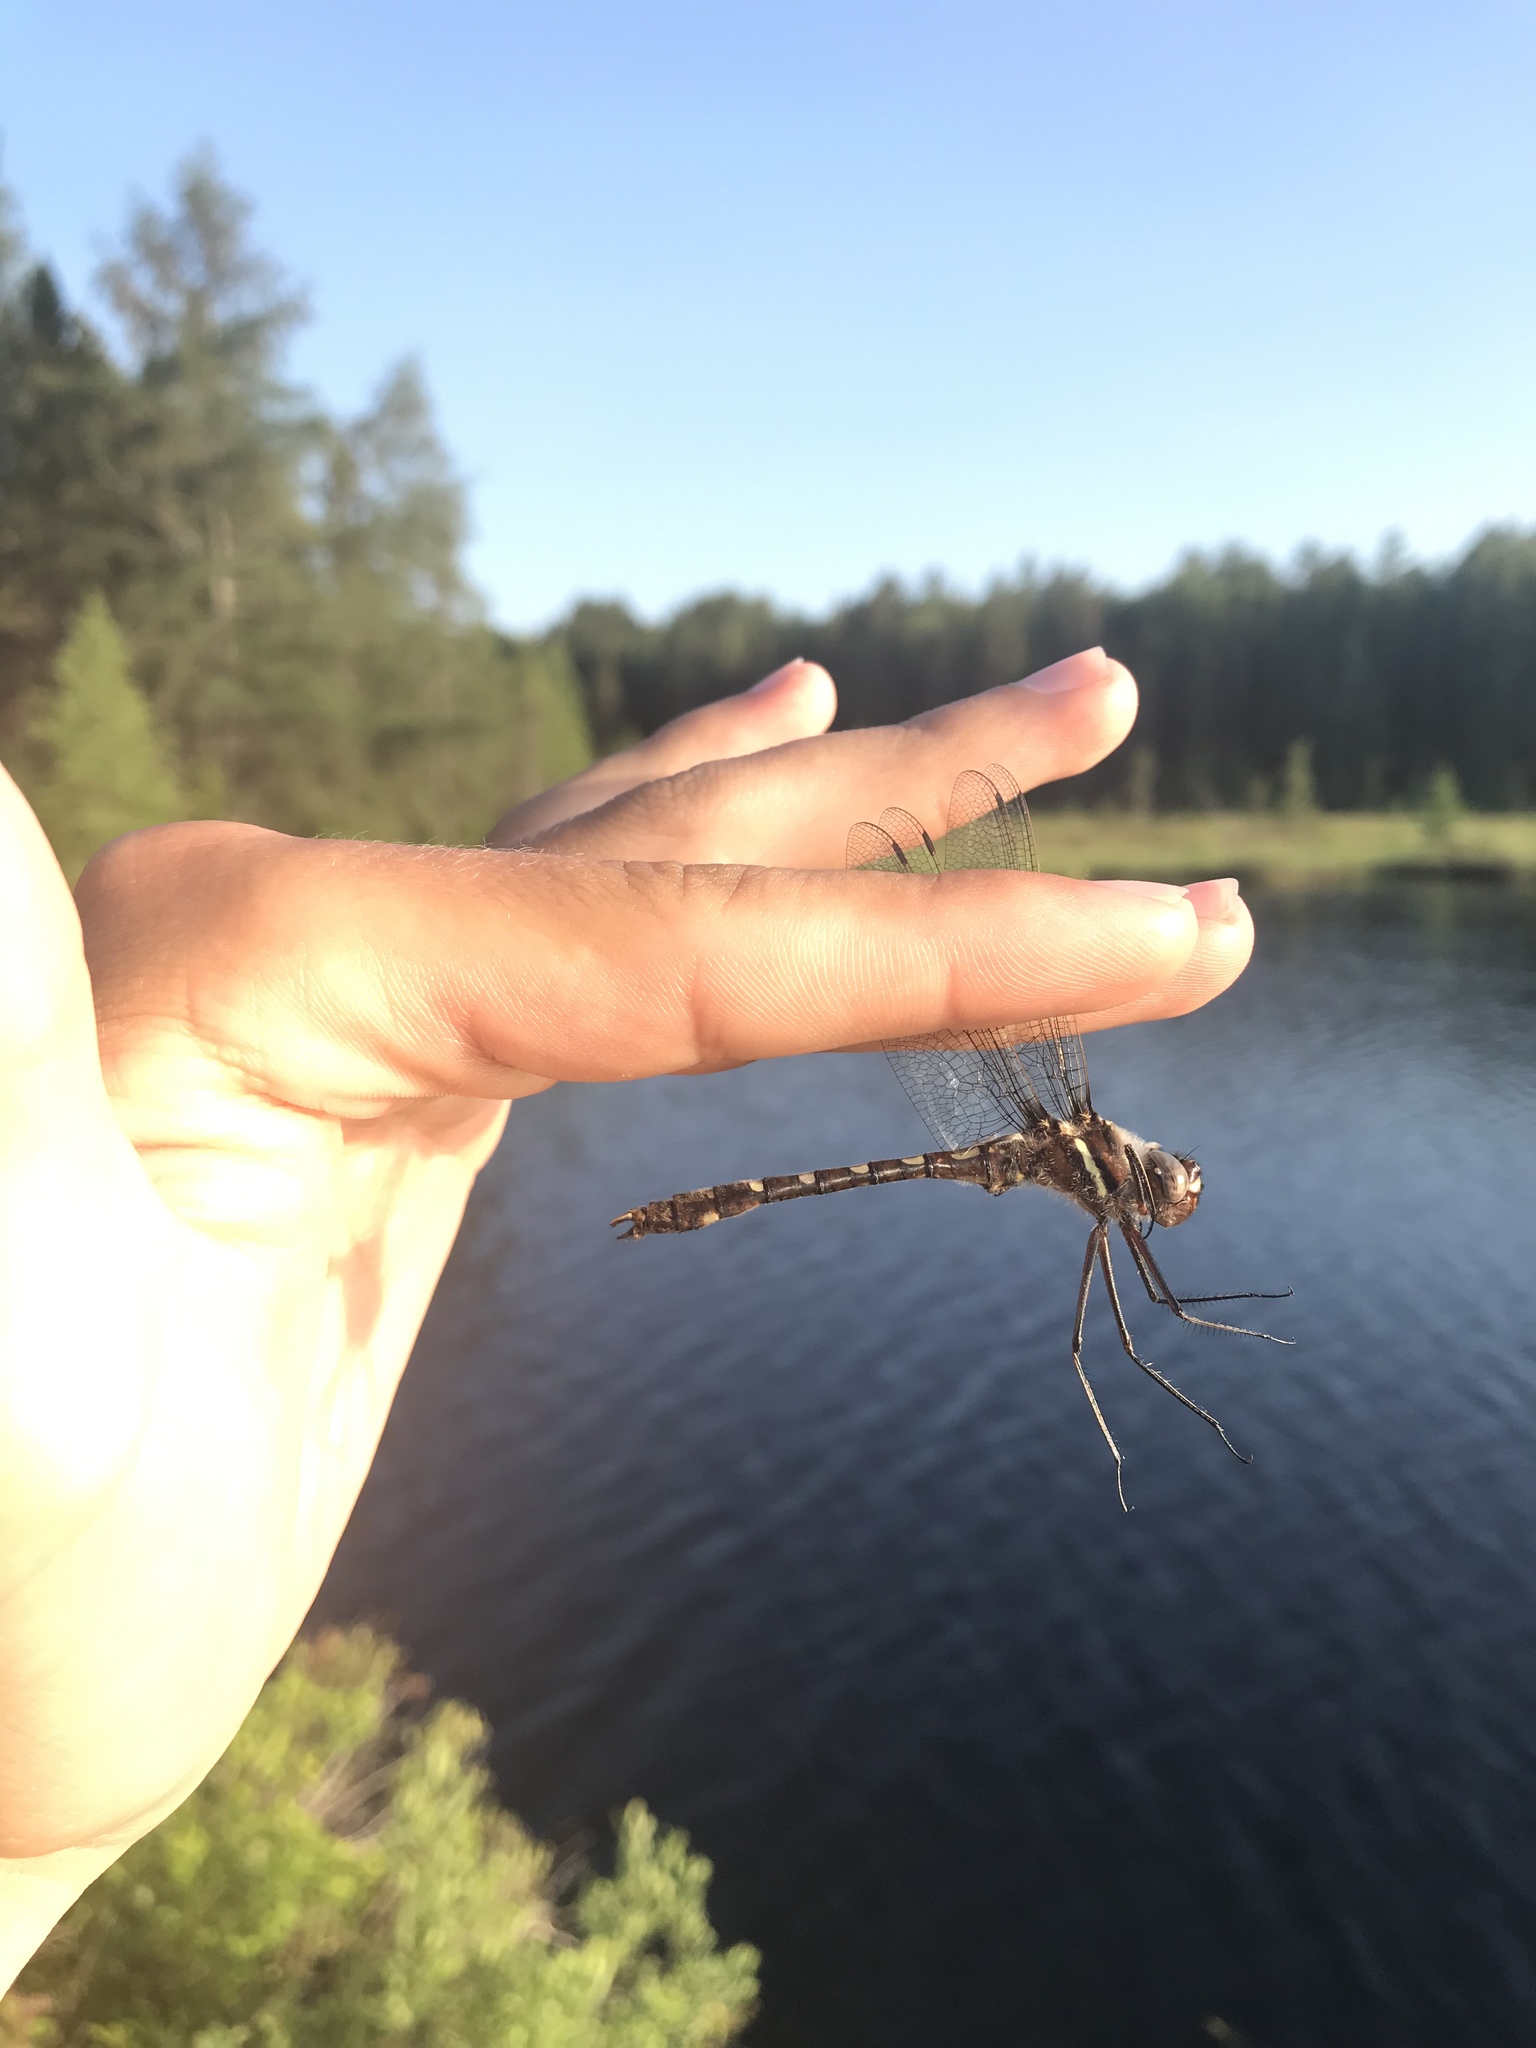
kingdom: Animalia
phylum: Arthropoda
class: Insecta
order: Odonata
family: Macromiidae
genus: Didymops
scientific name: Didymops transversa
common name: Stream cruiser
